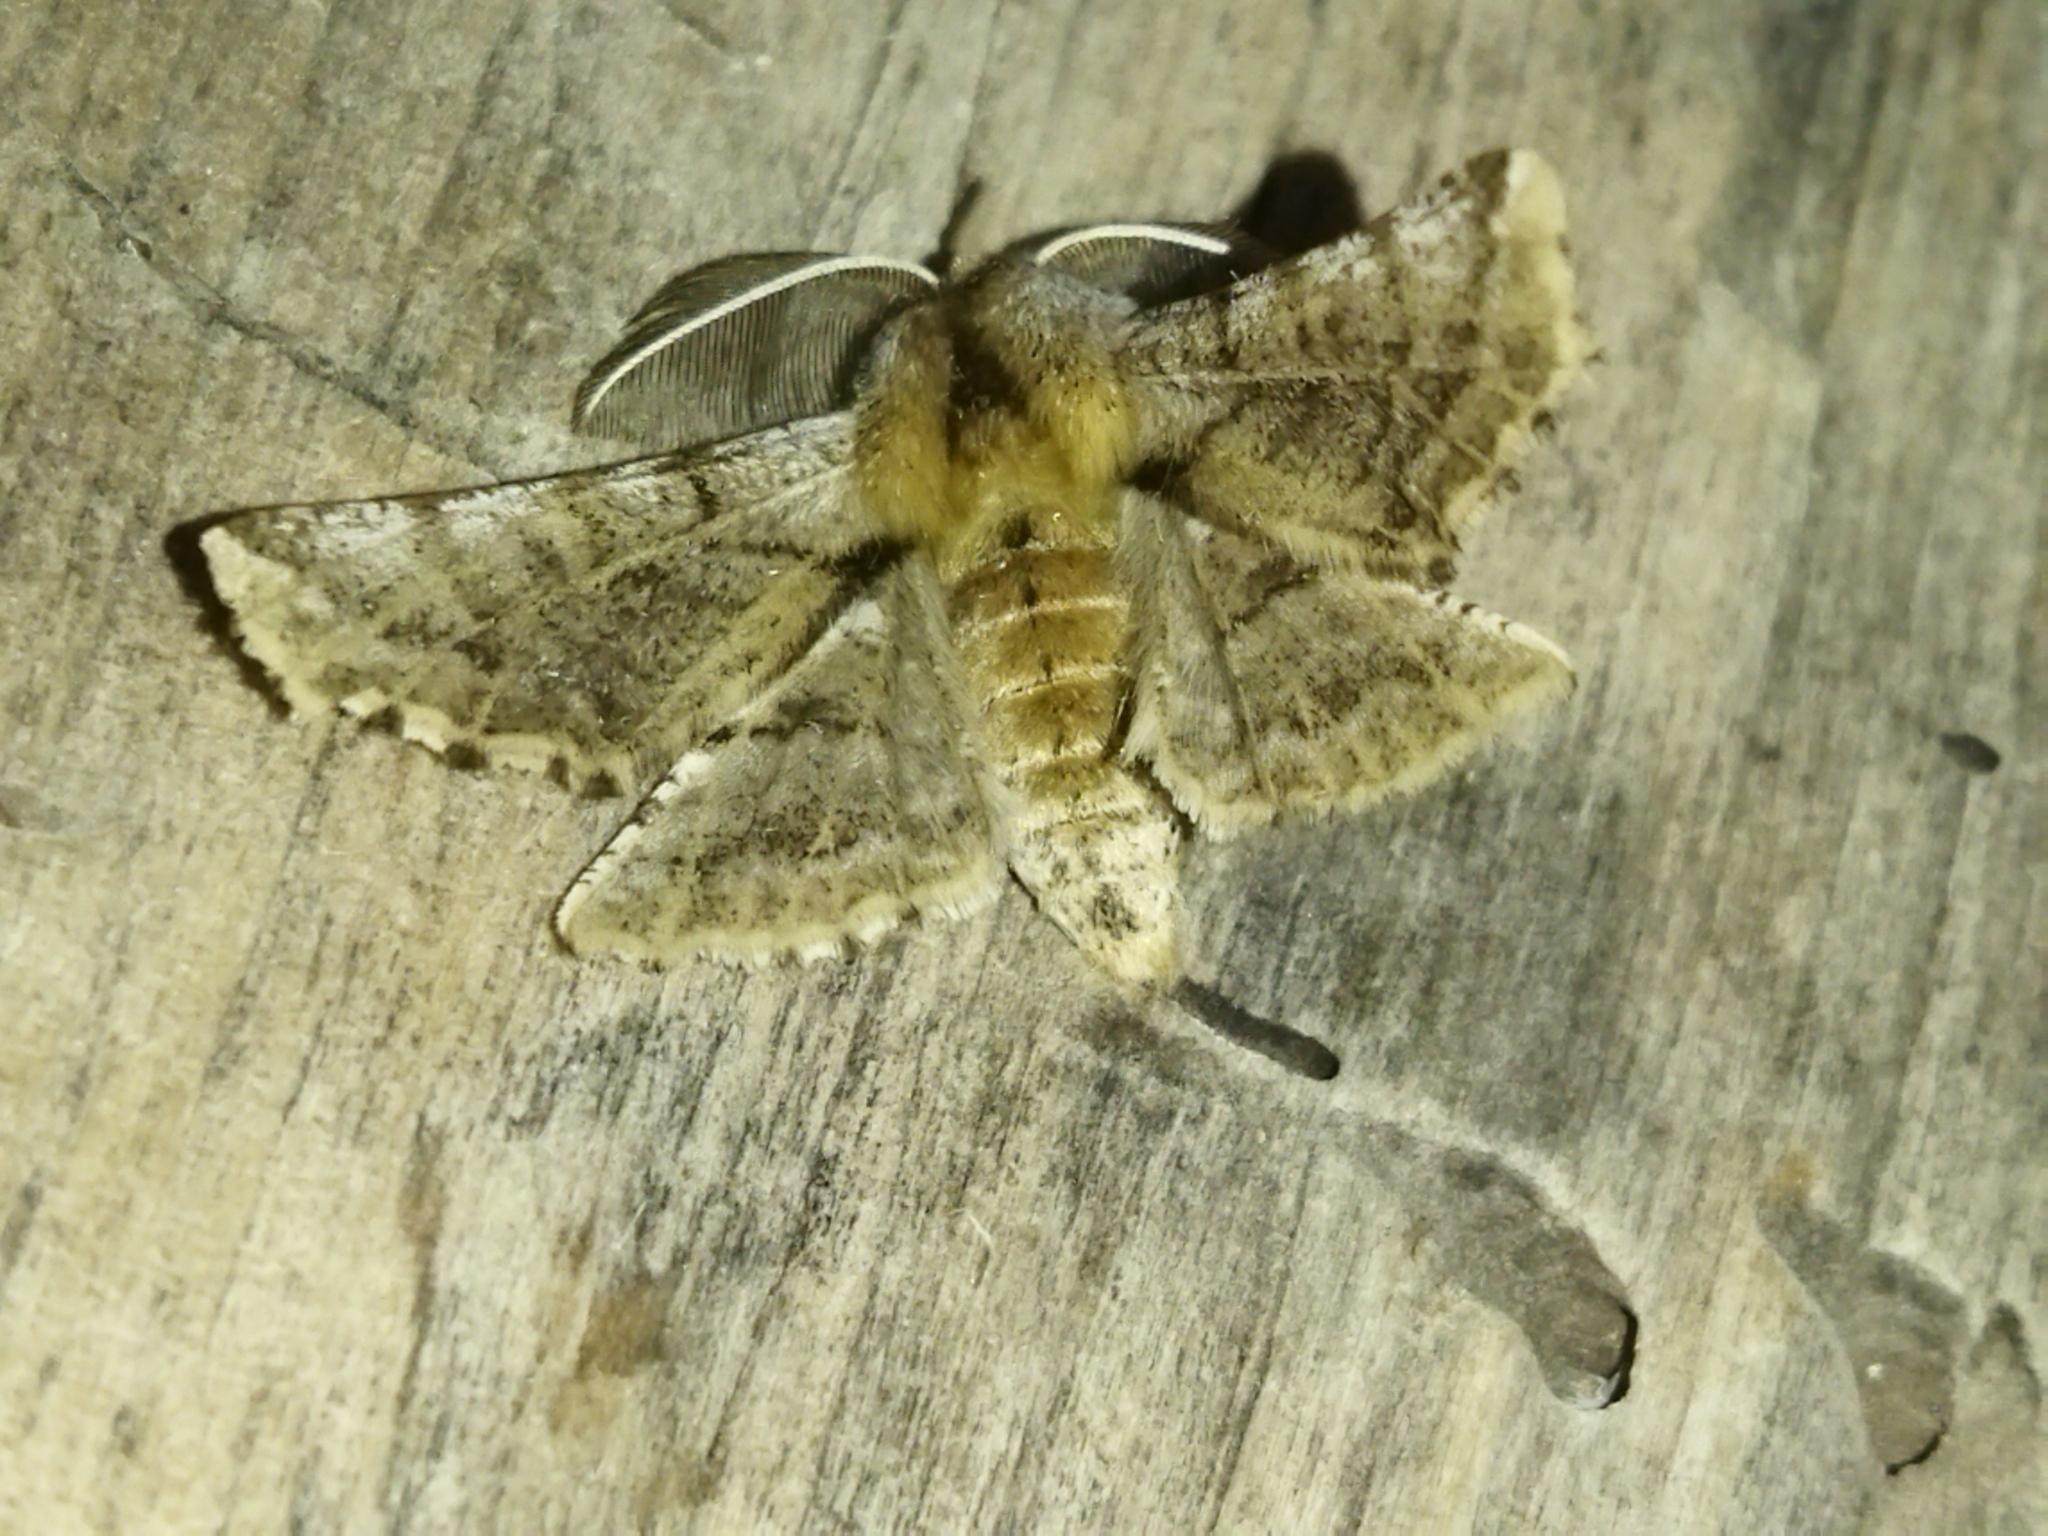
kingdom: Animalia
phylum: Arthropoda
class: Insecta
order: Lepidoptera
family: Geometridae
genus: Apochima
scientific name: Apochima flabellaria
